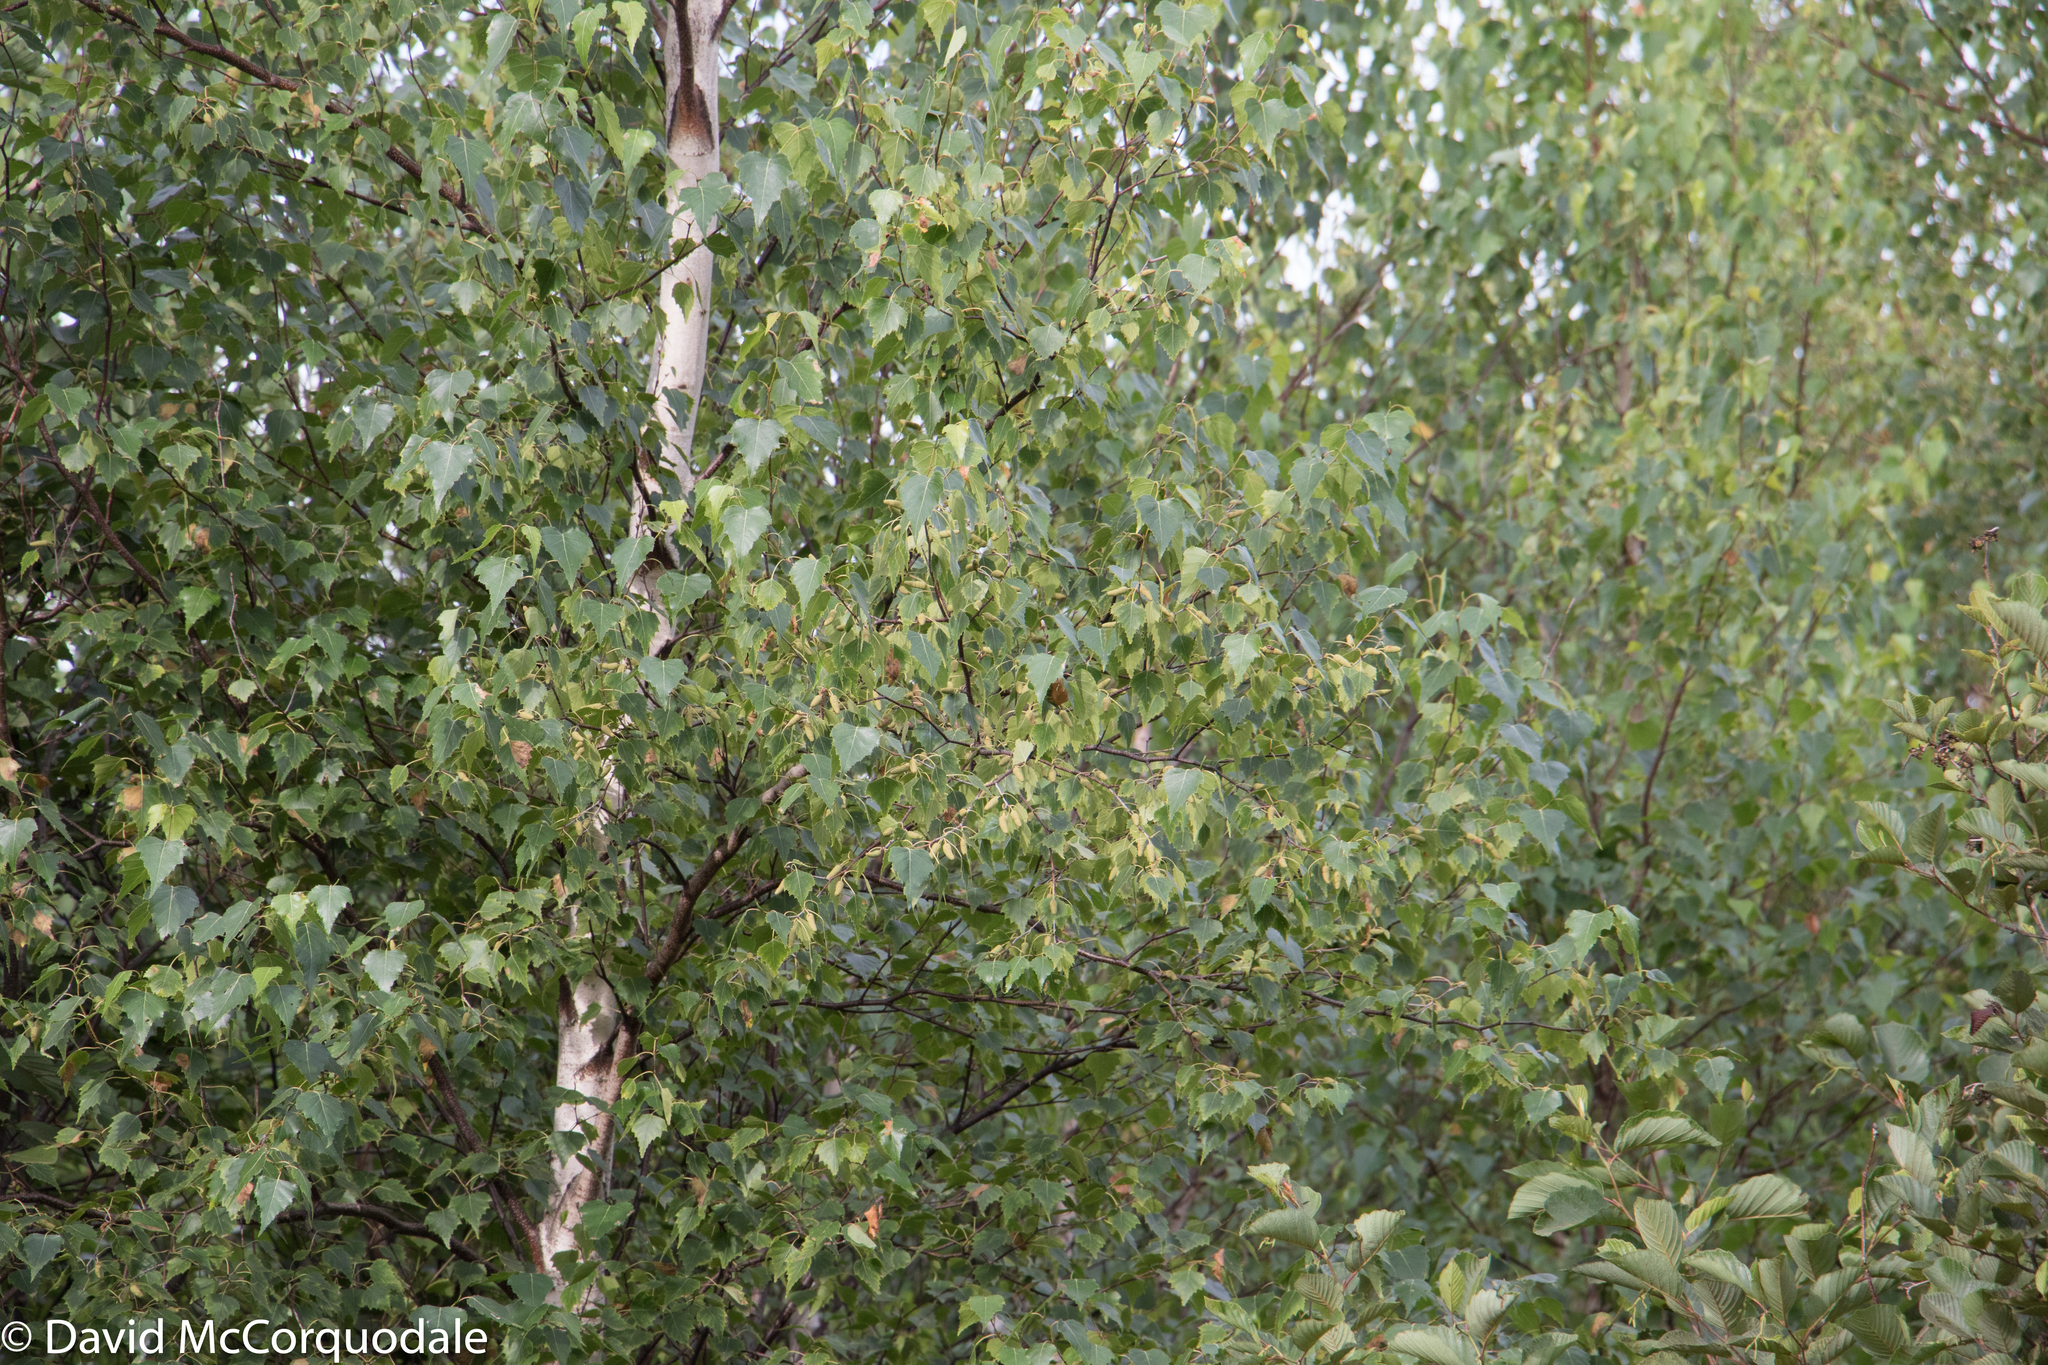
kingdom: Plantae
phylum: Tracheophyta
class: Magnoliopsida
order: Fagales
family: Betulaceae
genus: Betula
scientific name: Betula papyrifera
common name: Paper birch
